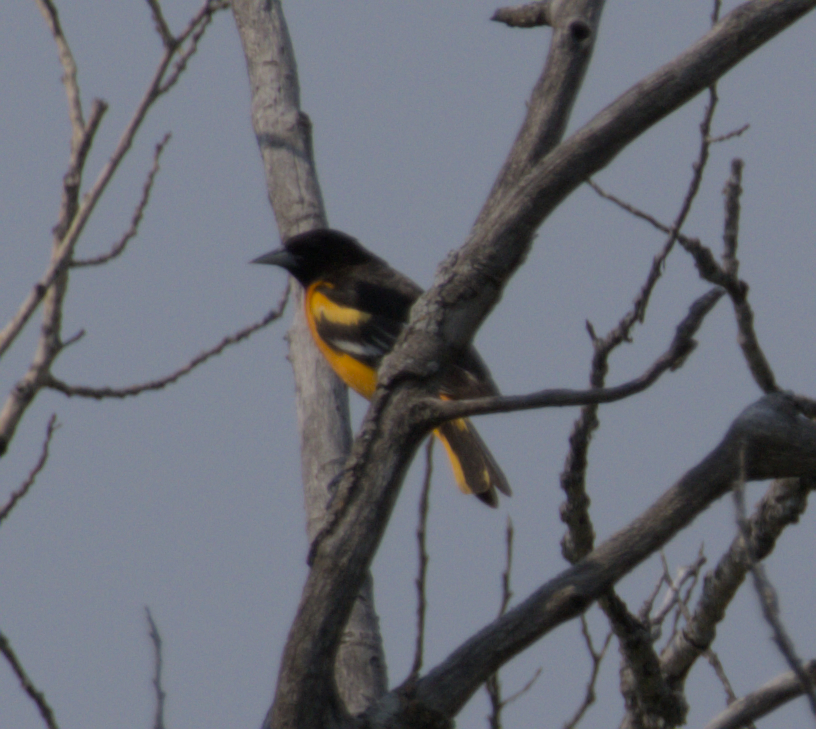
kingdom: Animalia
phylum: Chordata
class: Aves
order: Passeriformes
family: Icteridae
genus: Icterus
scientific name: Icterus galbula
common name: Baltimore oriole
